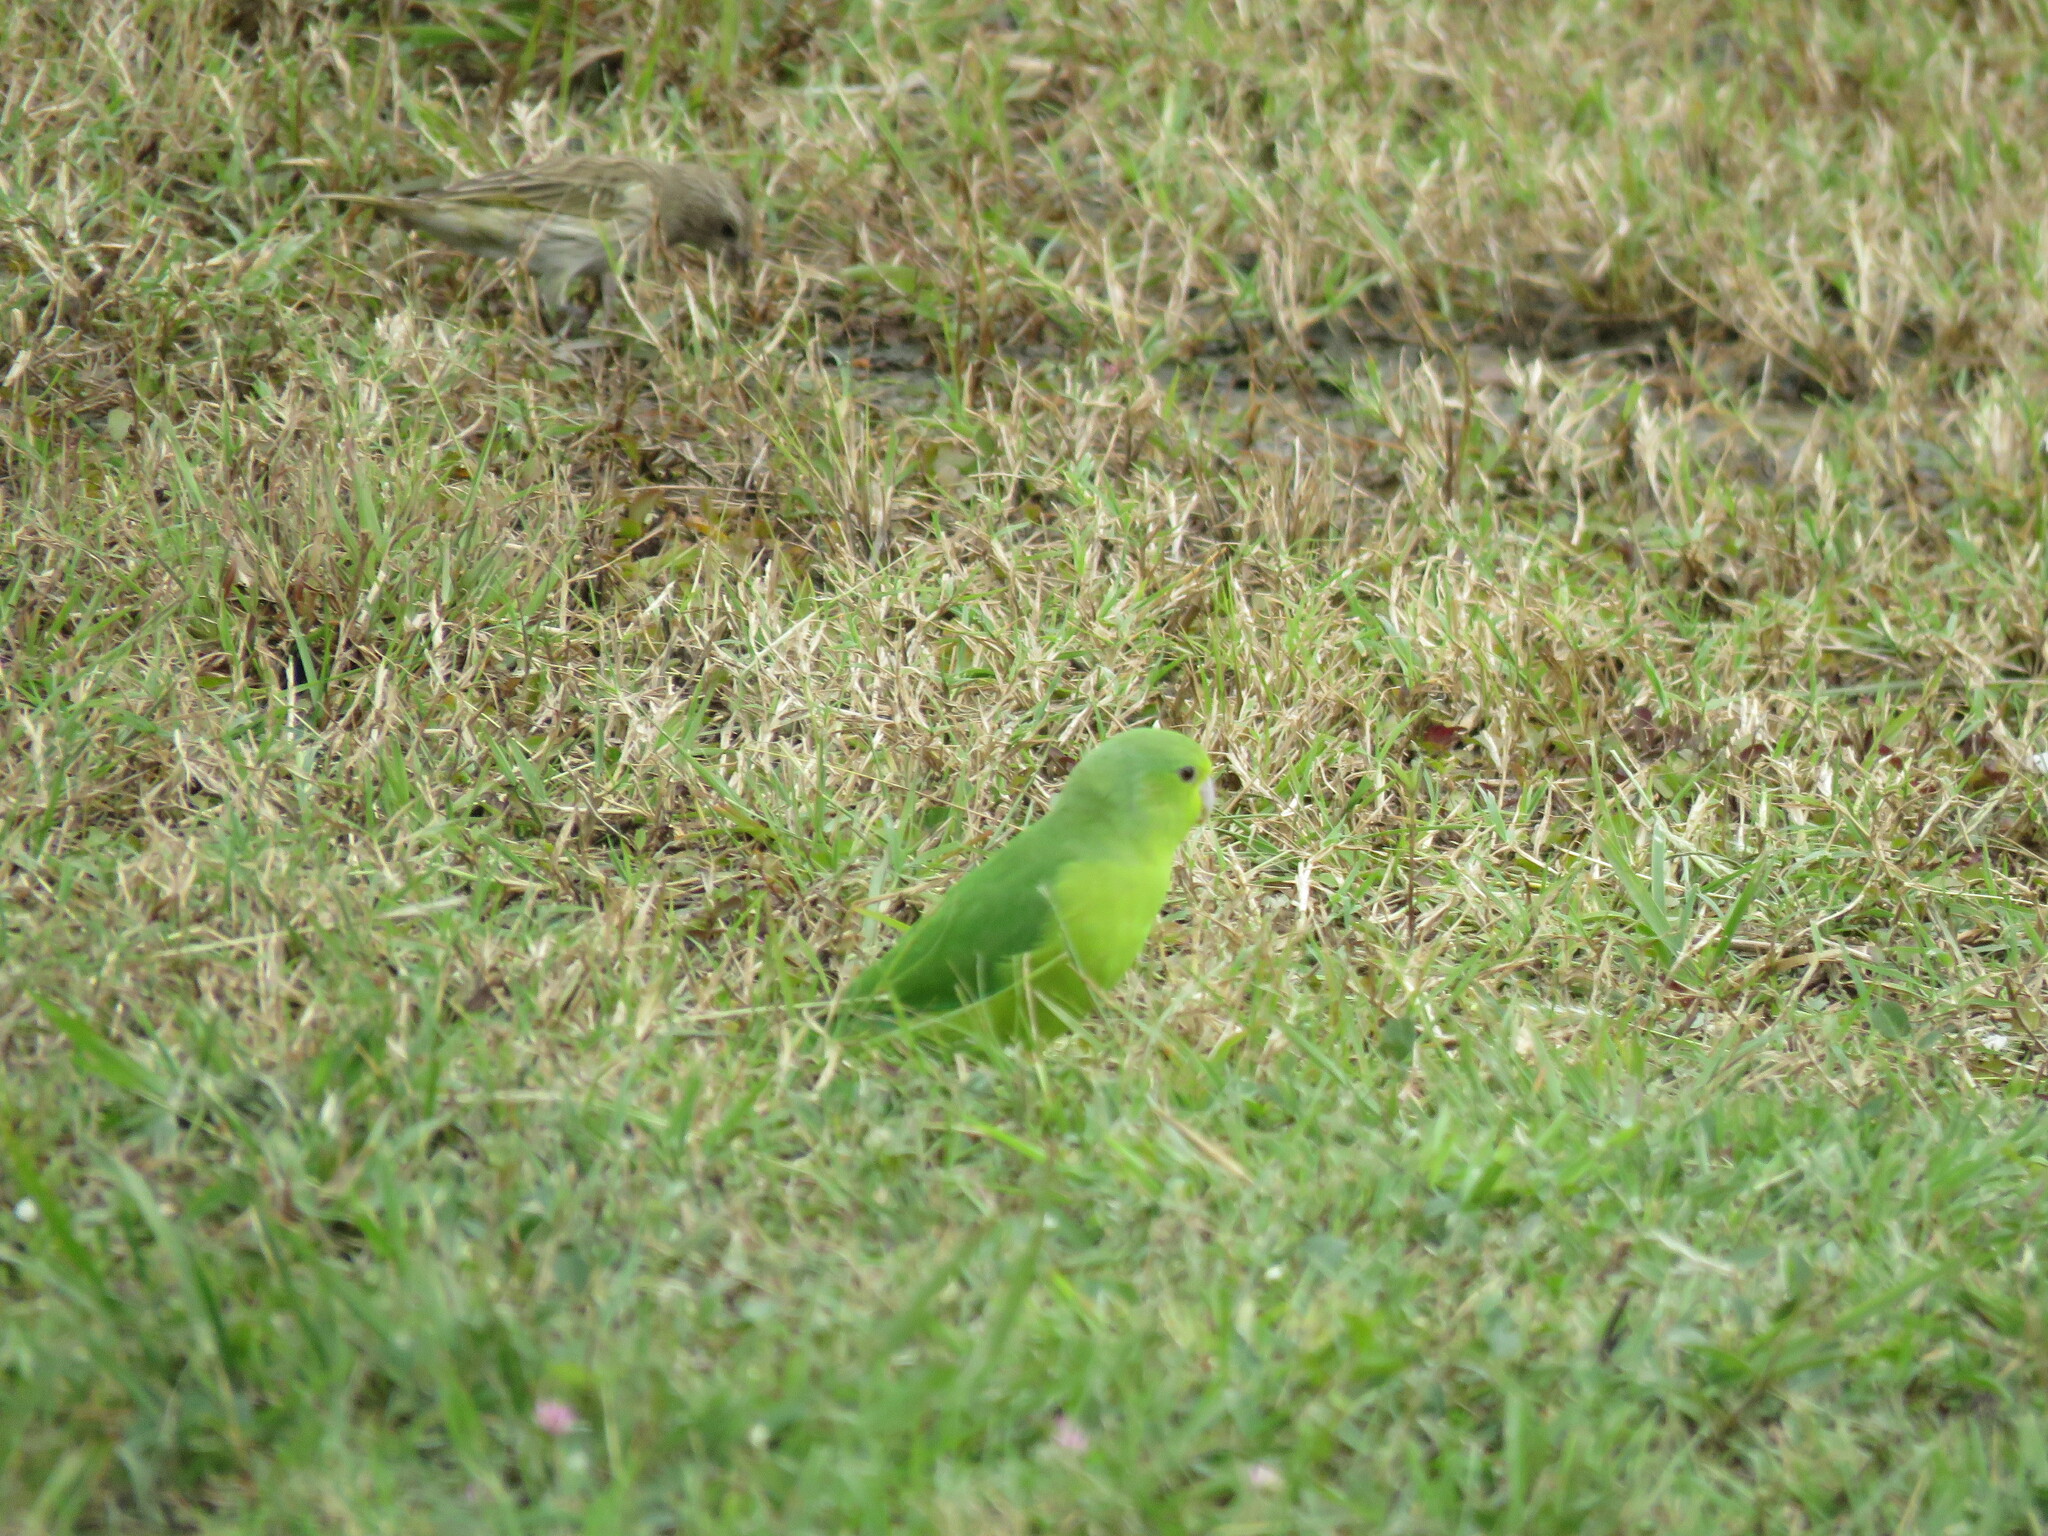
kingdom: Animalia
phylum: Chordata
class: Aves
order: Psittaciformes
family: Psittacidae
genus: Forpus
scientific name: Forpus xanthopterygius
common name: Blue-winged parrotlet
